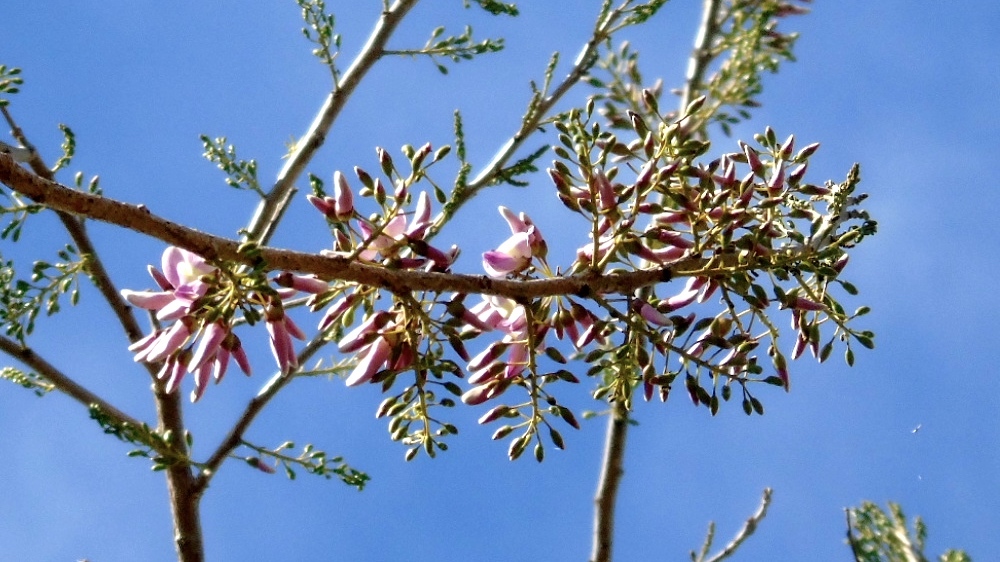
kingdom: Plantae
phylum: Tracheophyta
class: Magnoliopsida
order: Fabales
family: Fabaceae
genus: Gliricidia
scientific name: Gliricidia sepium
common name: Quickstick
